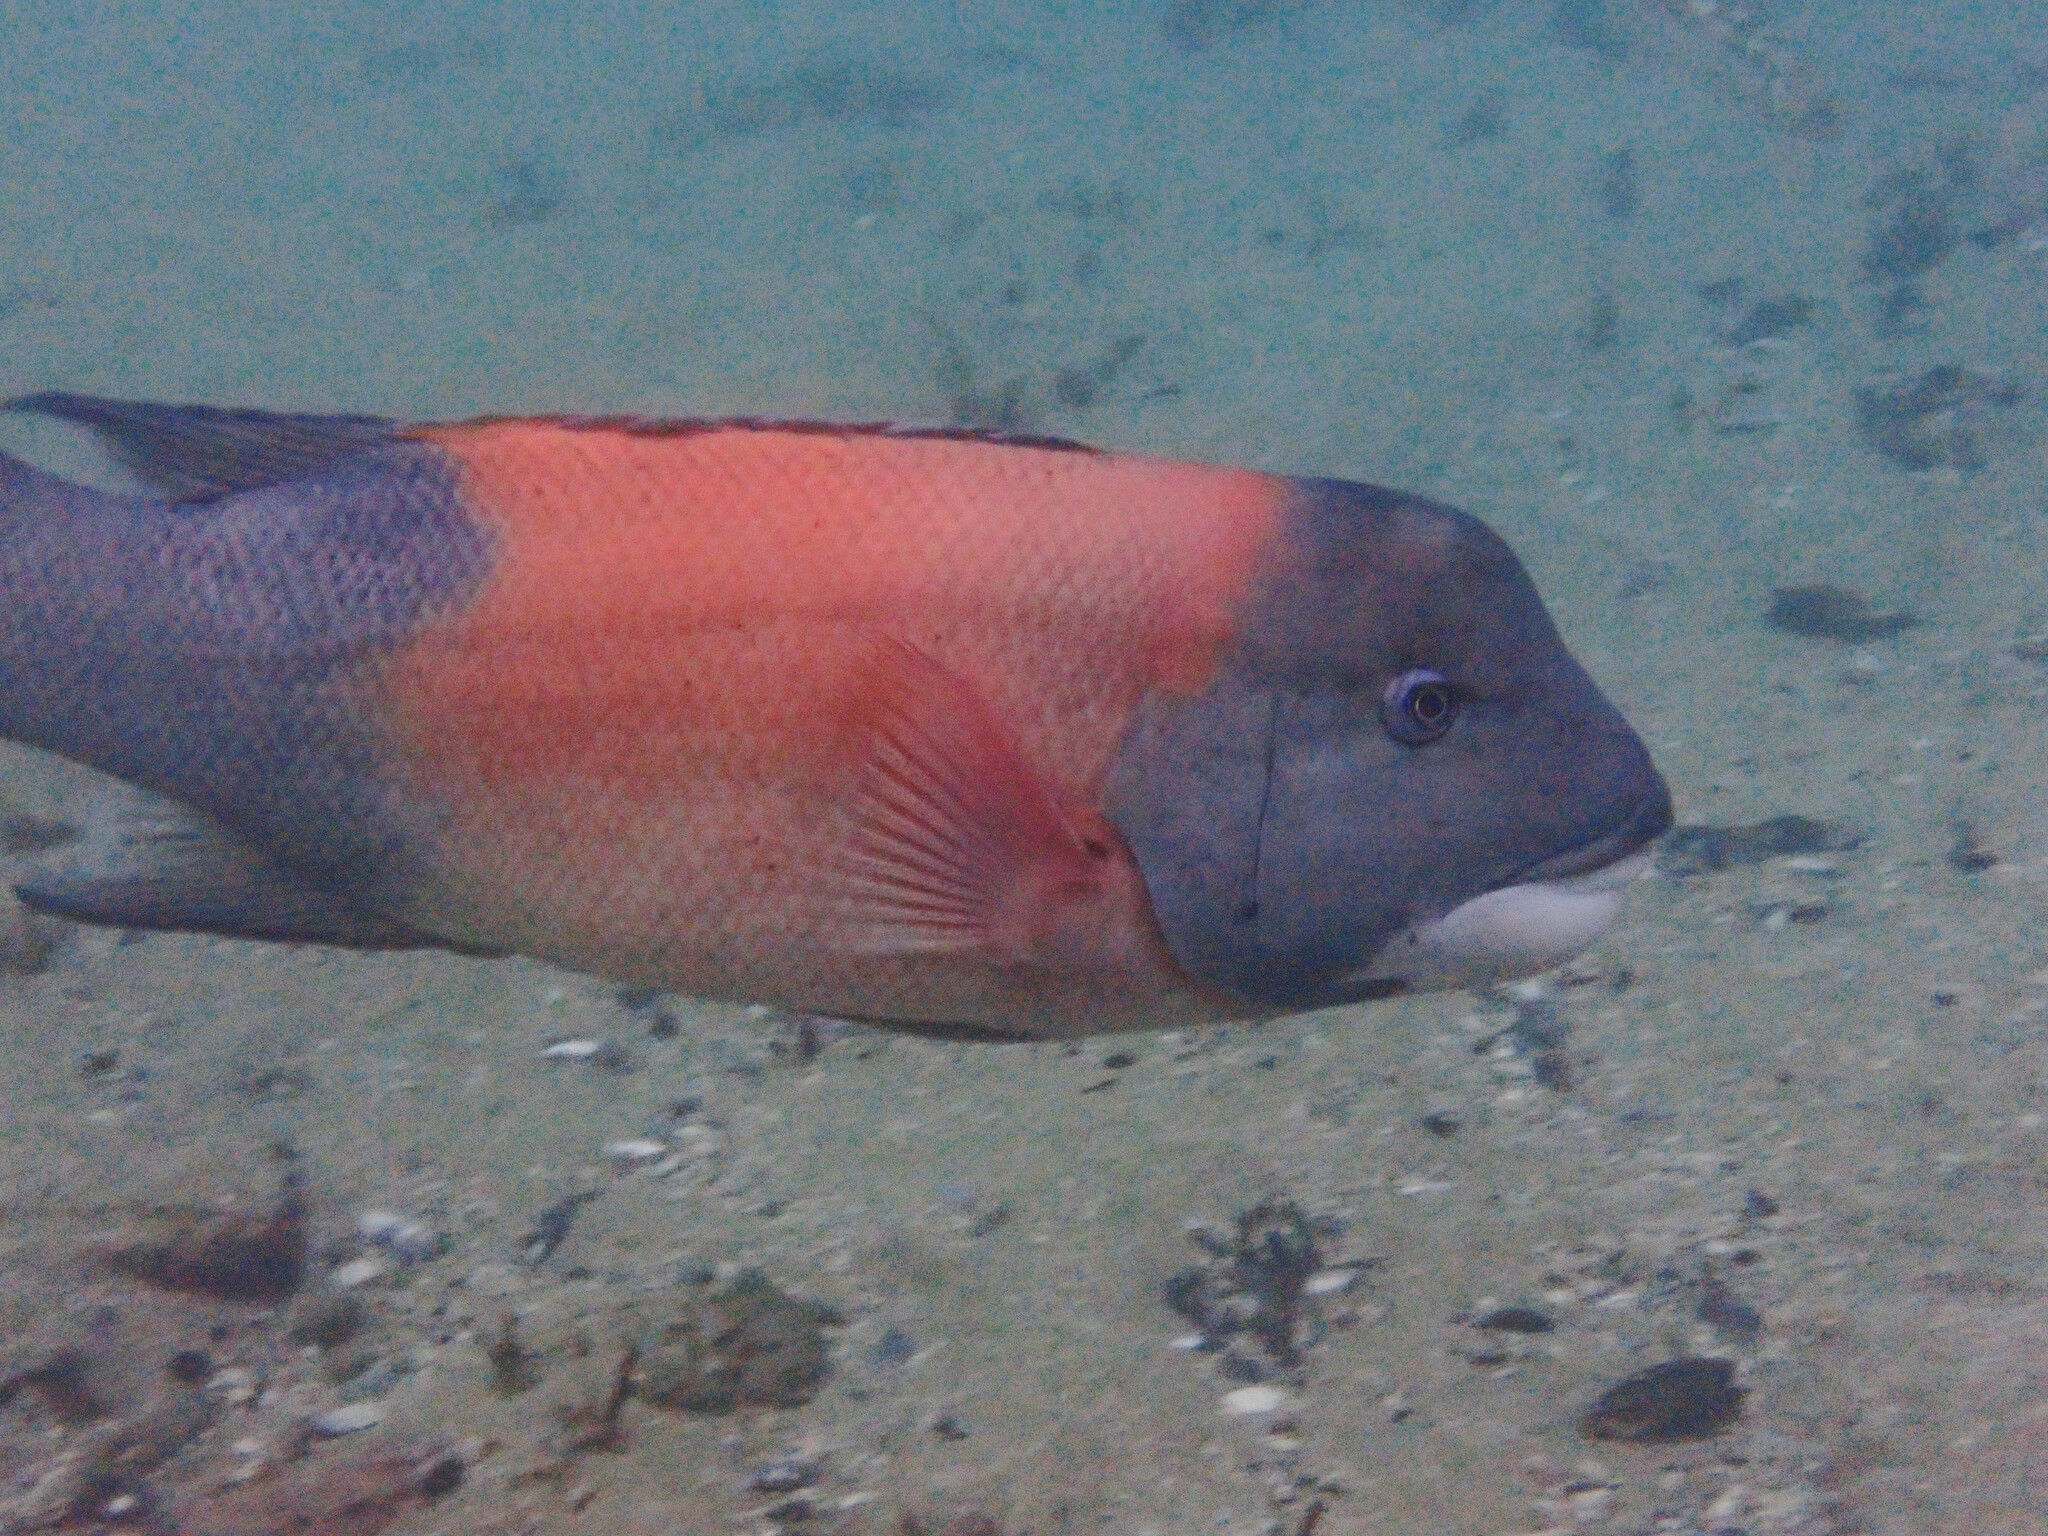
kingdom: Animalia
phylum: Chordata
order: Perciformes
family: Labridae
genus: Semicossyphus
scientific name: Semicossyphus pulcher
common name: California sheephead
